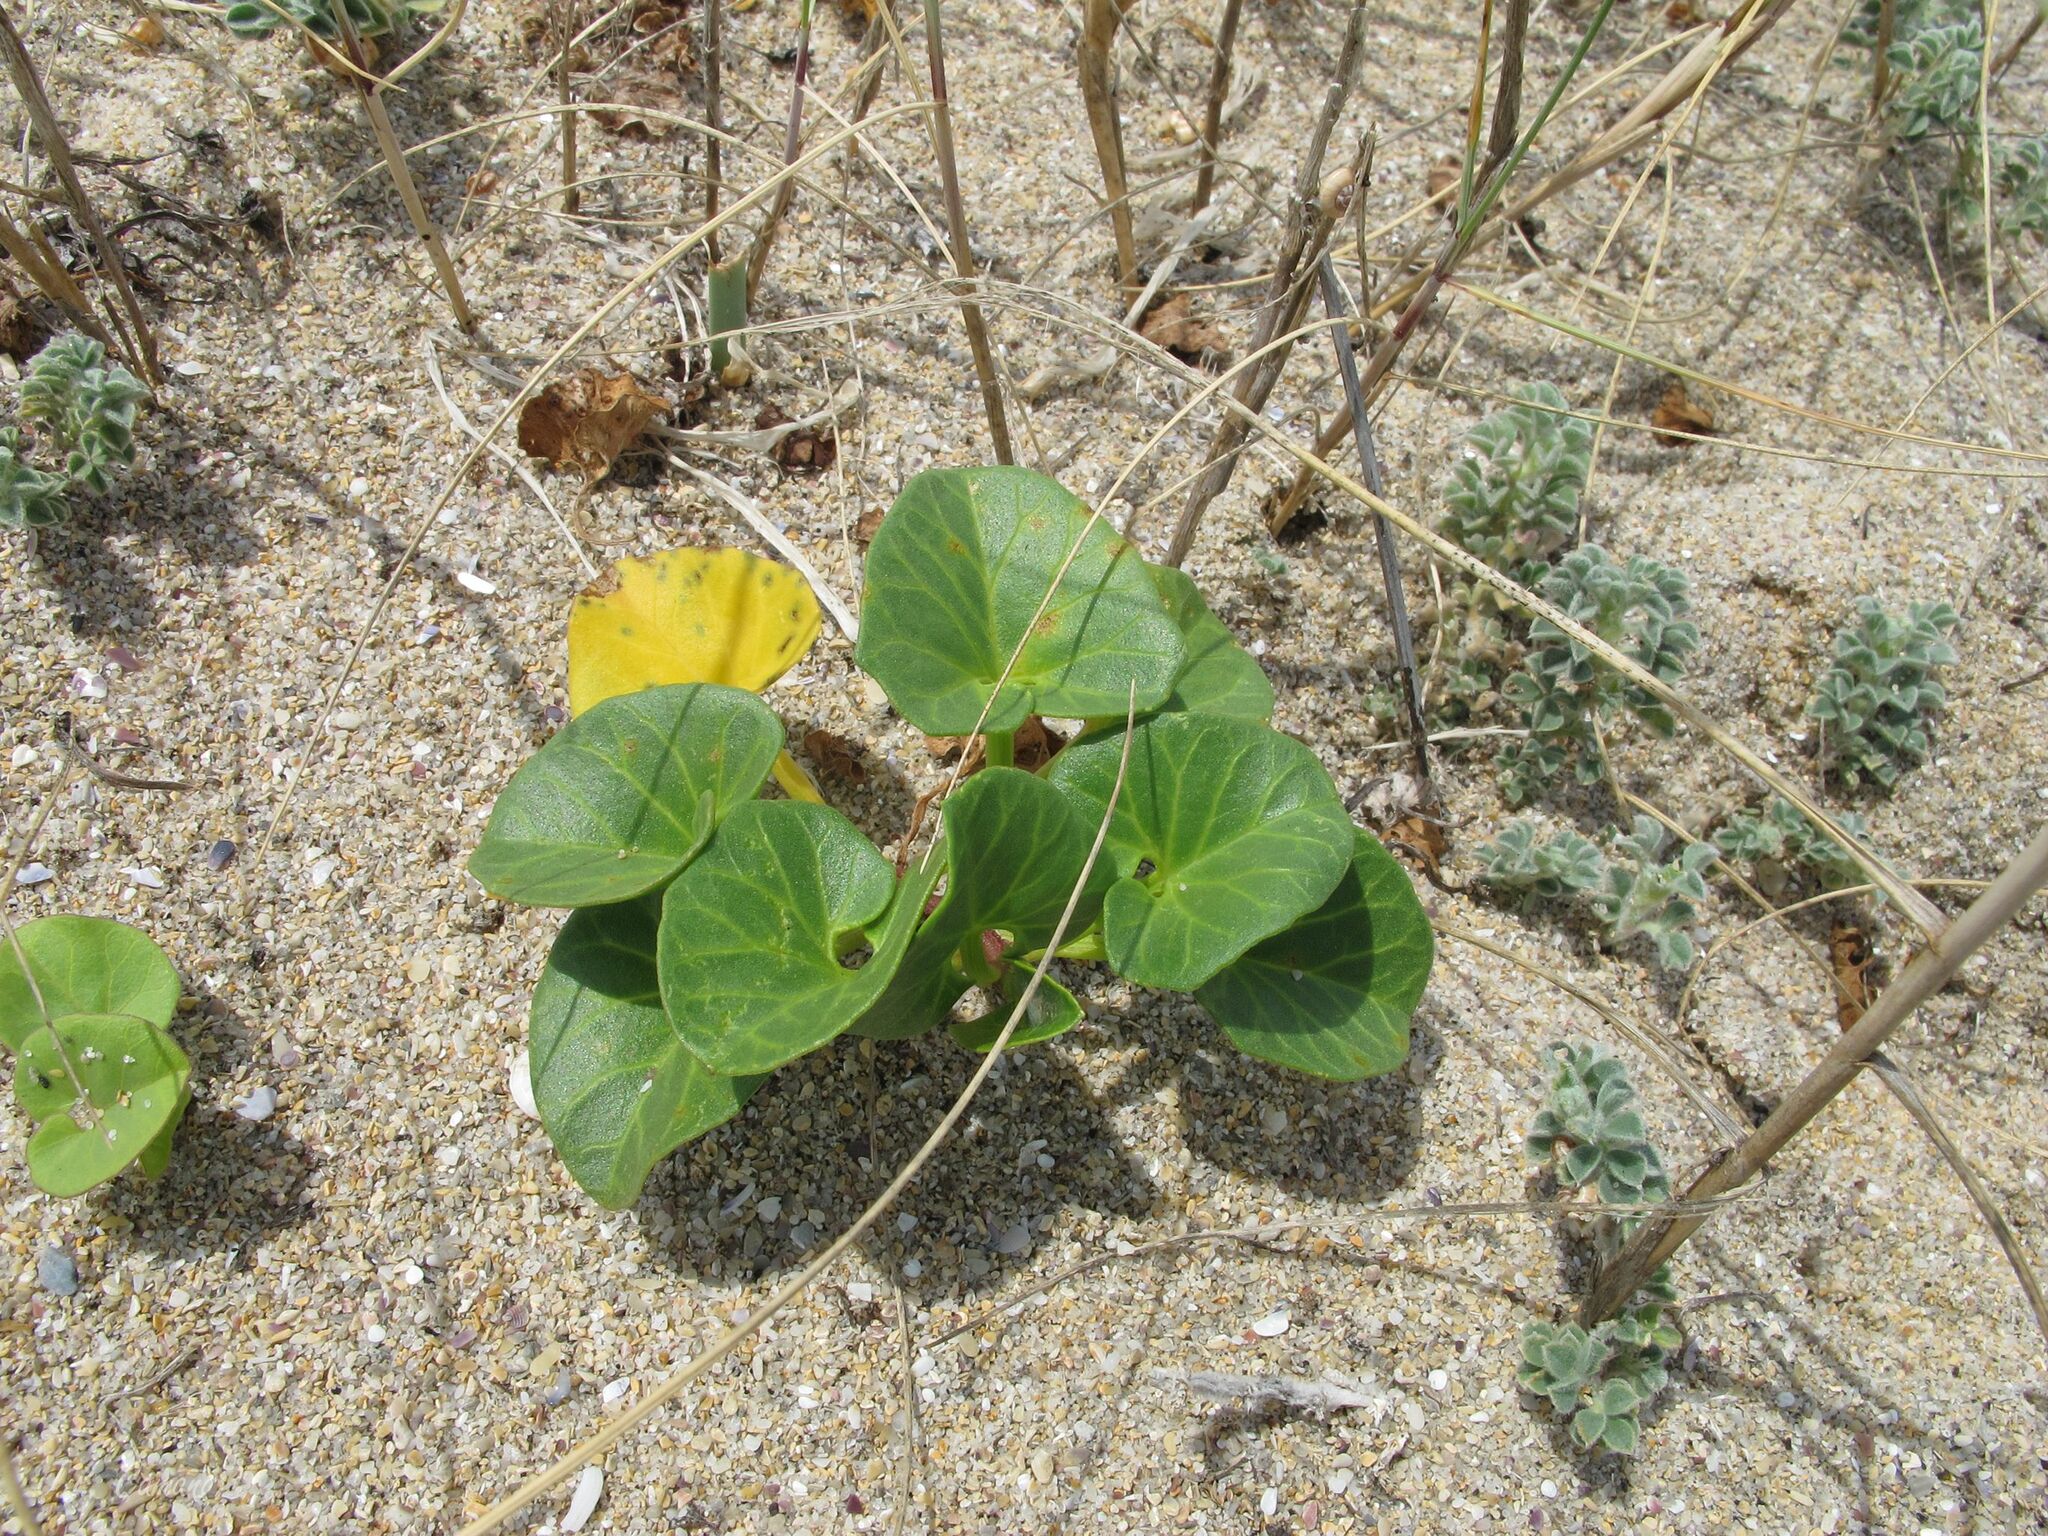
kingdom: Plantae
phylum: Tracheophyta
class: Magnoliopsida
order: Solanales
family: Convolvulaceae
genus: Calystegia
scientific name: Calystegia soldanella
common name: Sea bindweed
